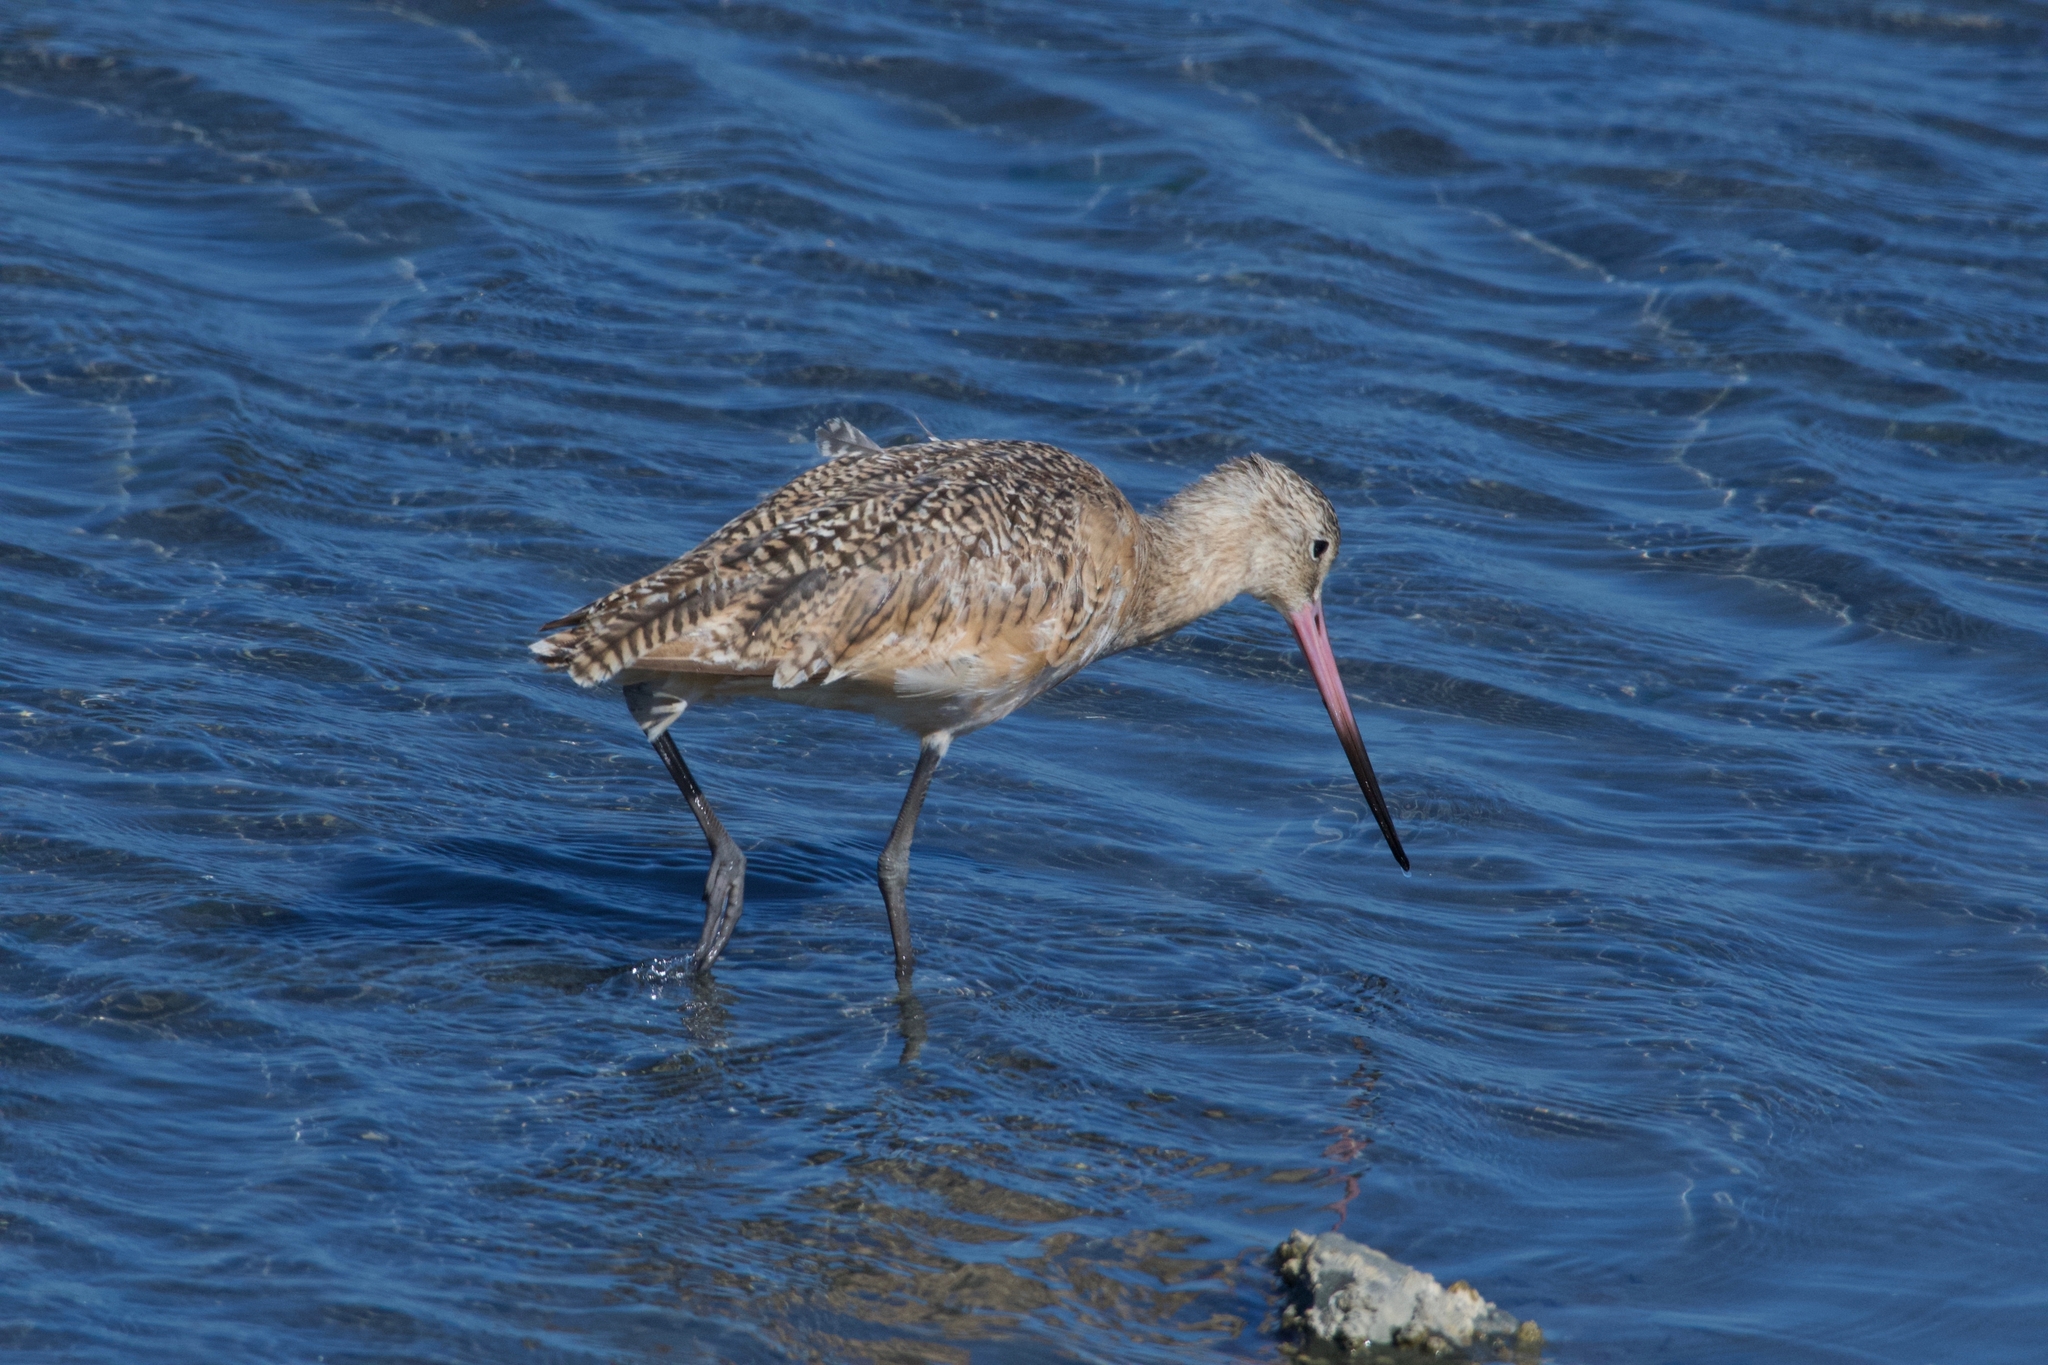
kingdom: Animalia
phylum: Chordata
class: Aves
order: Charadriiformes
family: Scolopacidae
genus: Limosa
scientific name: Limosa fedoa
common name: Marbled godwit
